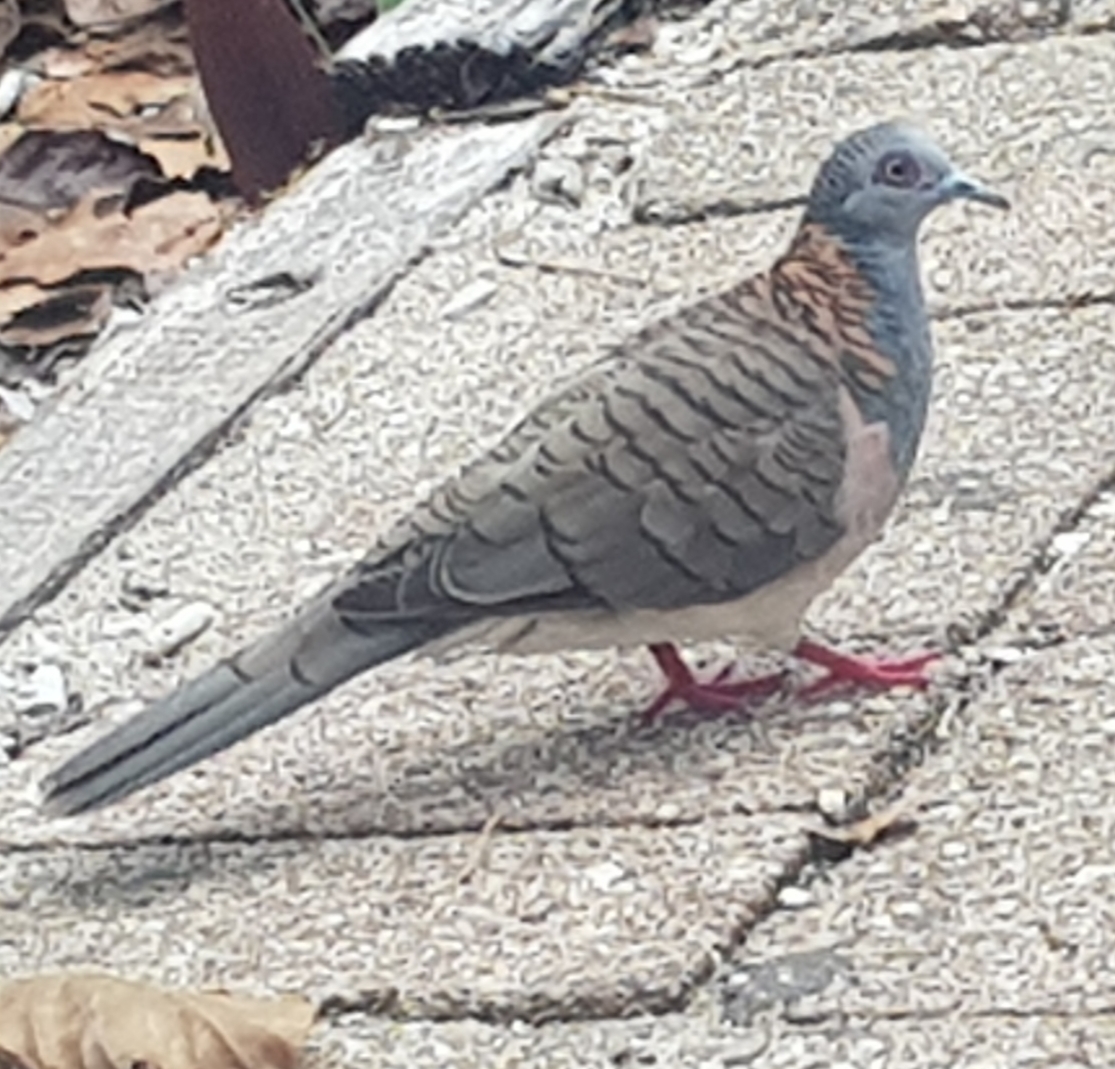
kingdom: Animalia
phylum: Chordata
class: Aves
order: Columbiformes
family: Columbidae
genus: Geopelia
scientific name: Geopelia humeralis
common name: Bar-shouldered dove
